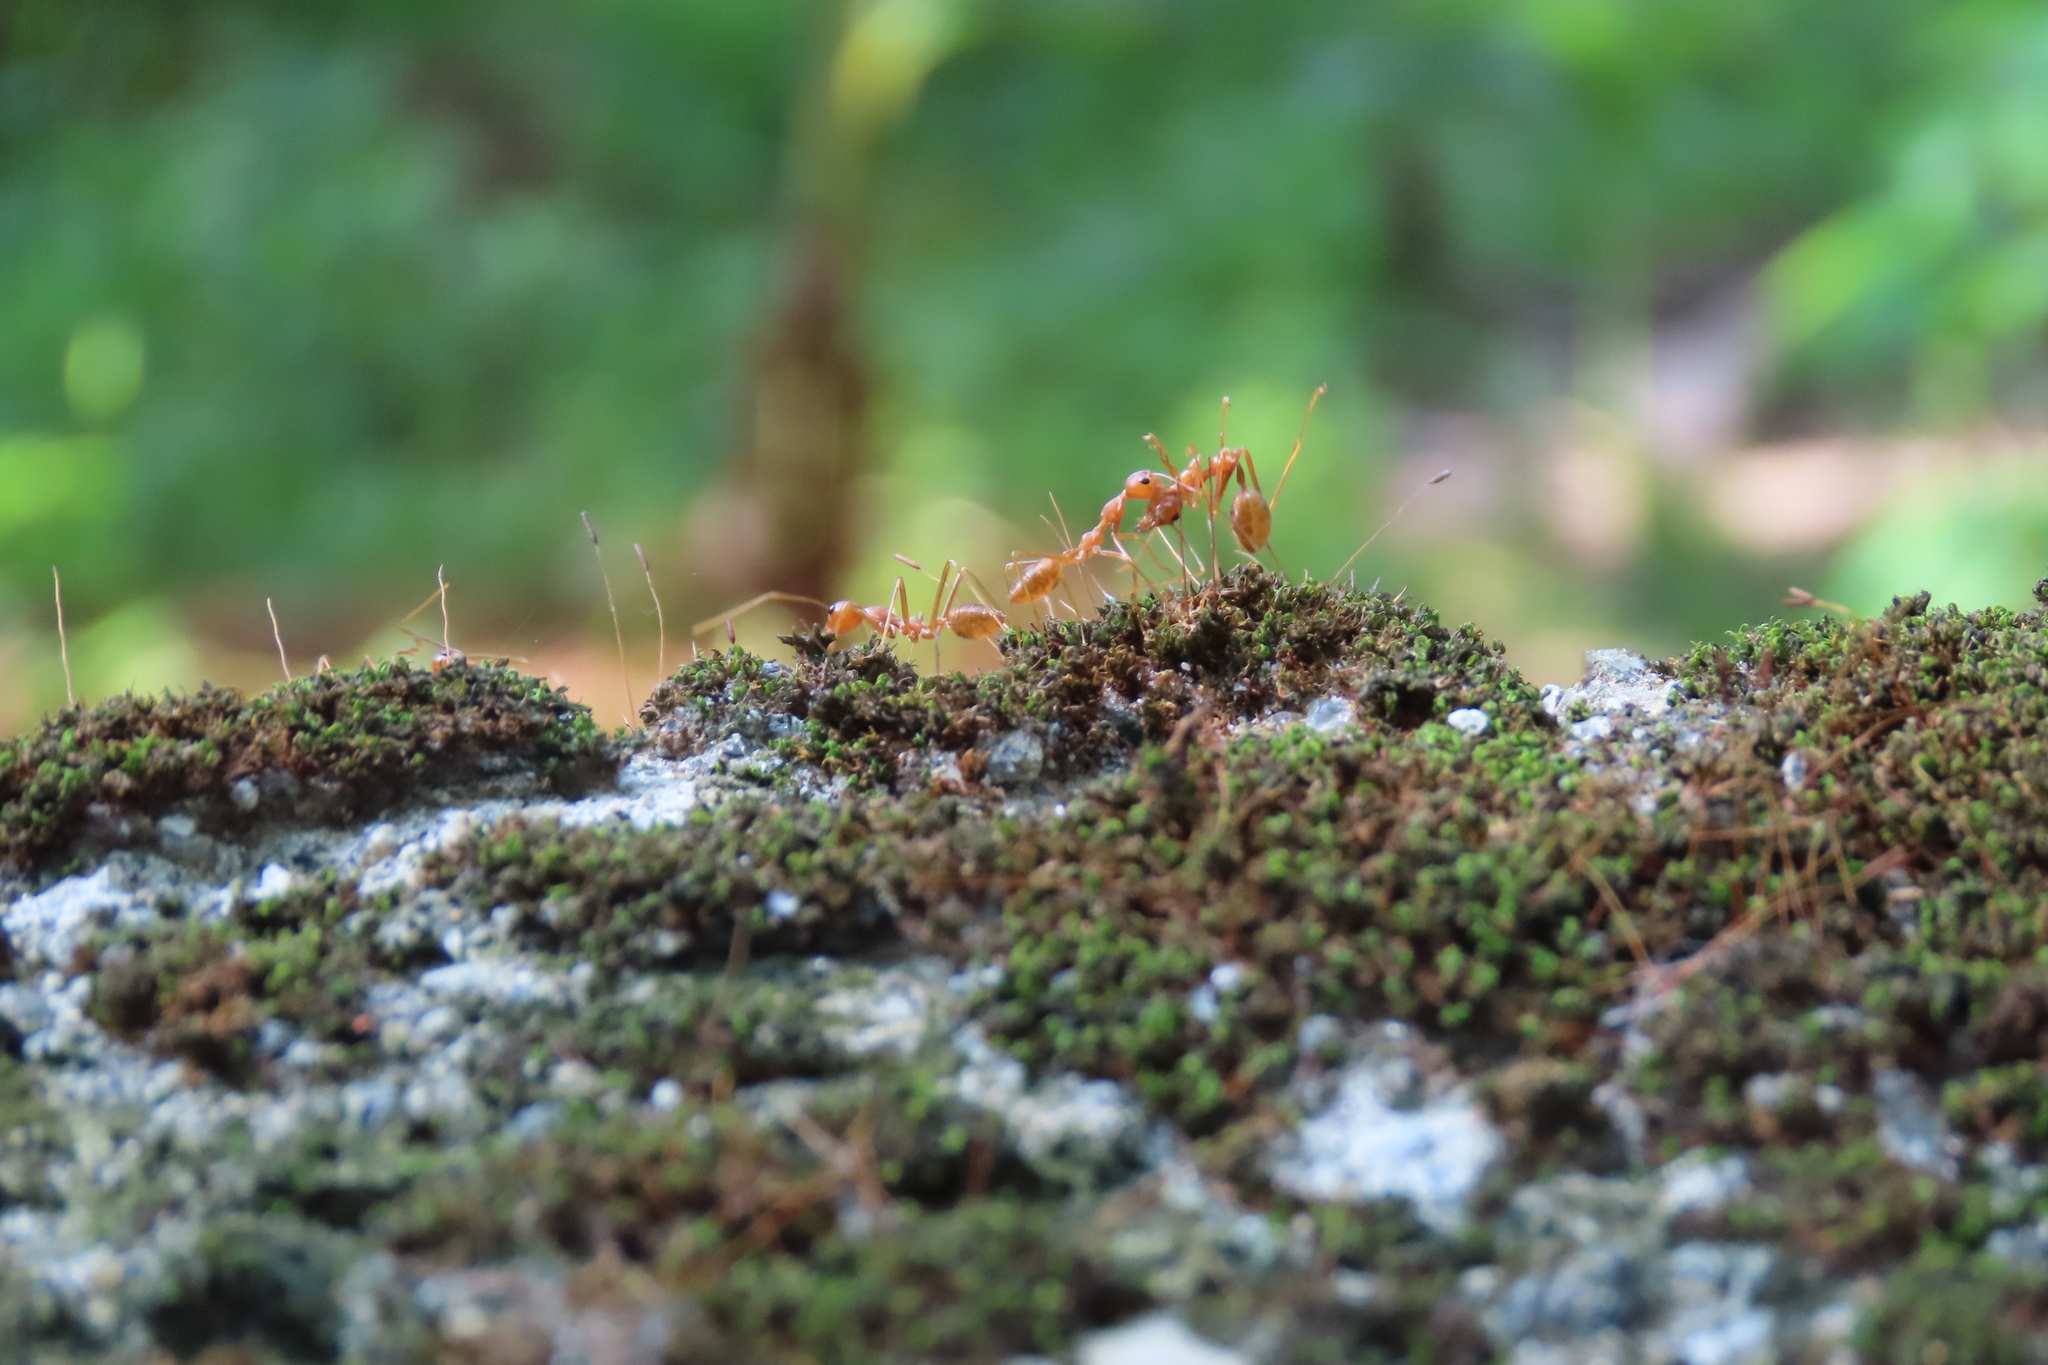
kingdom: Animalia
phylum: Arthropoda
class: Insecta
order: Hymenoptera
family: Formicidae
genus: Oecophylla
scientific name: Oecophylla smaragdina
